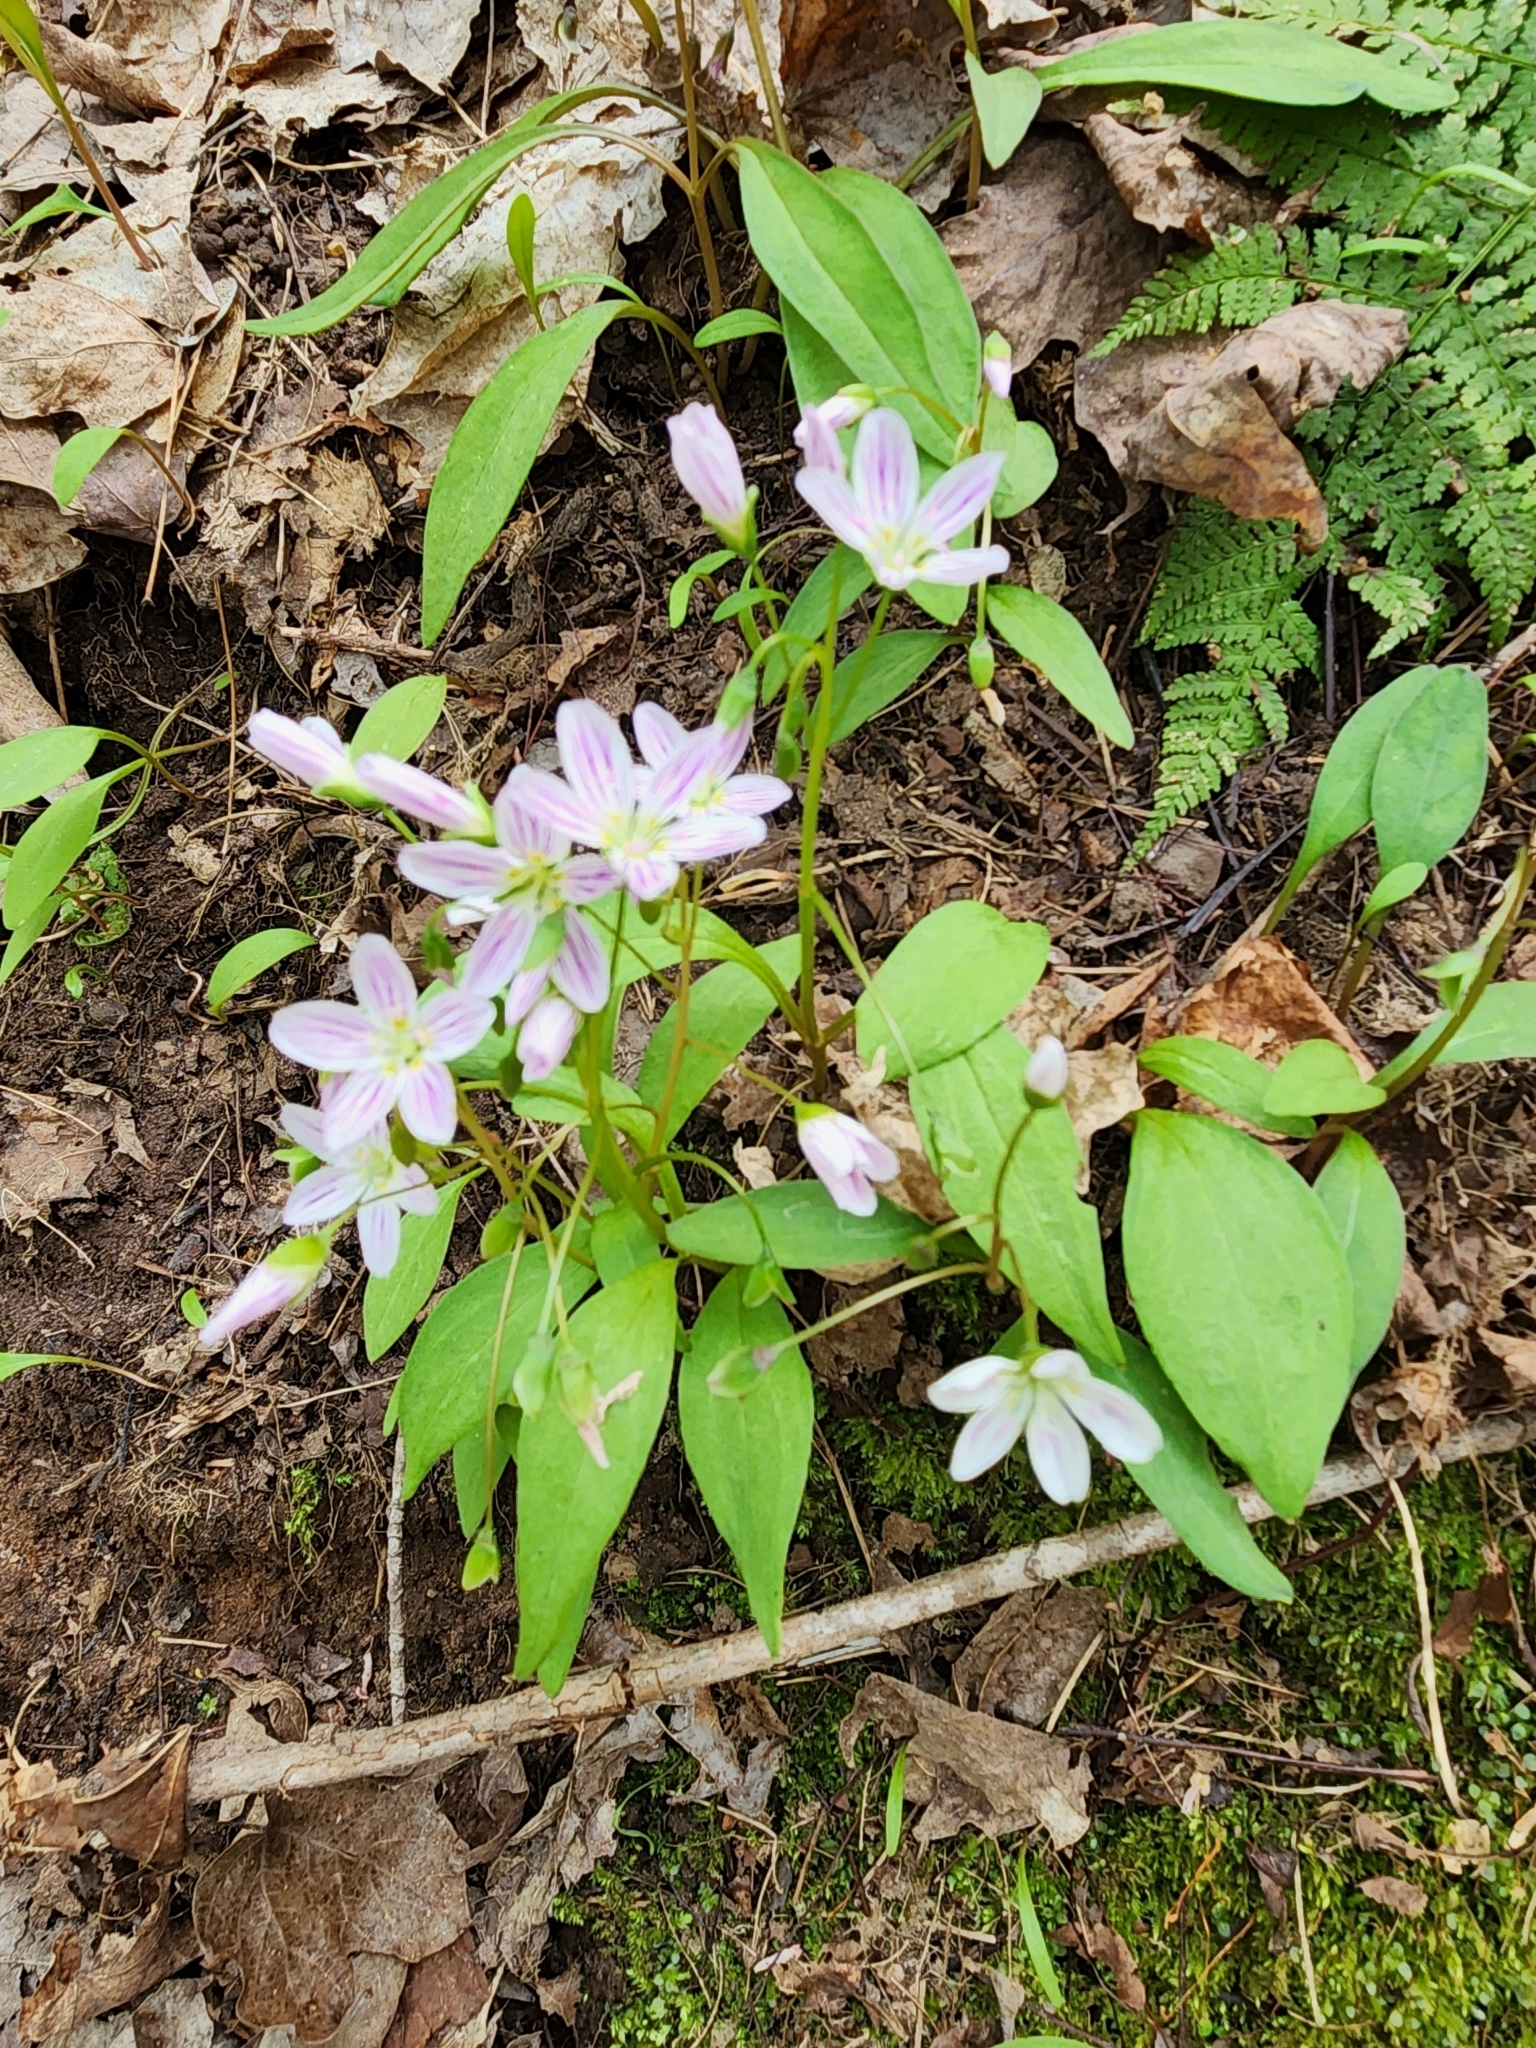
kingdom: Plantae
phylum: Tracheophyta
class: Magnoliopsida
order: Caryophyllales
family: Montiaceae
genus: Claytonia
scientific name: Claytonia caroliniana
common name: Carolina spring beauty
